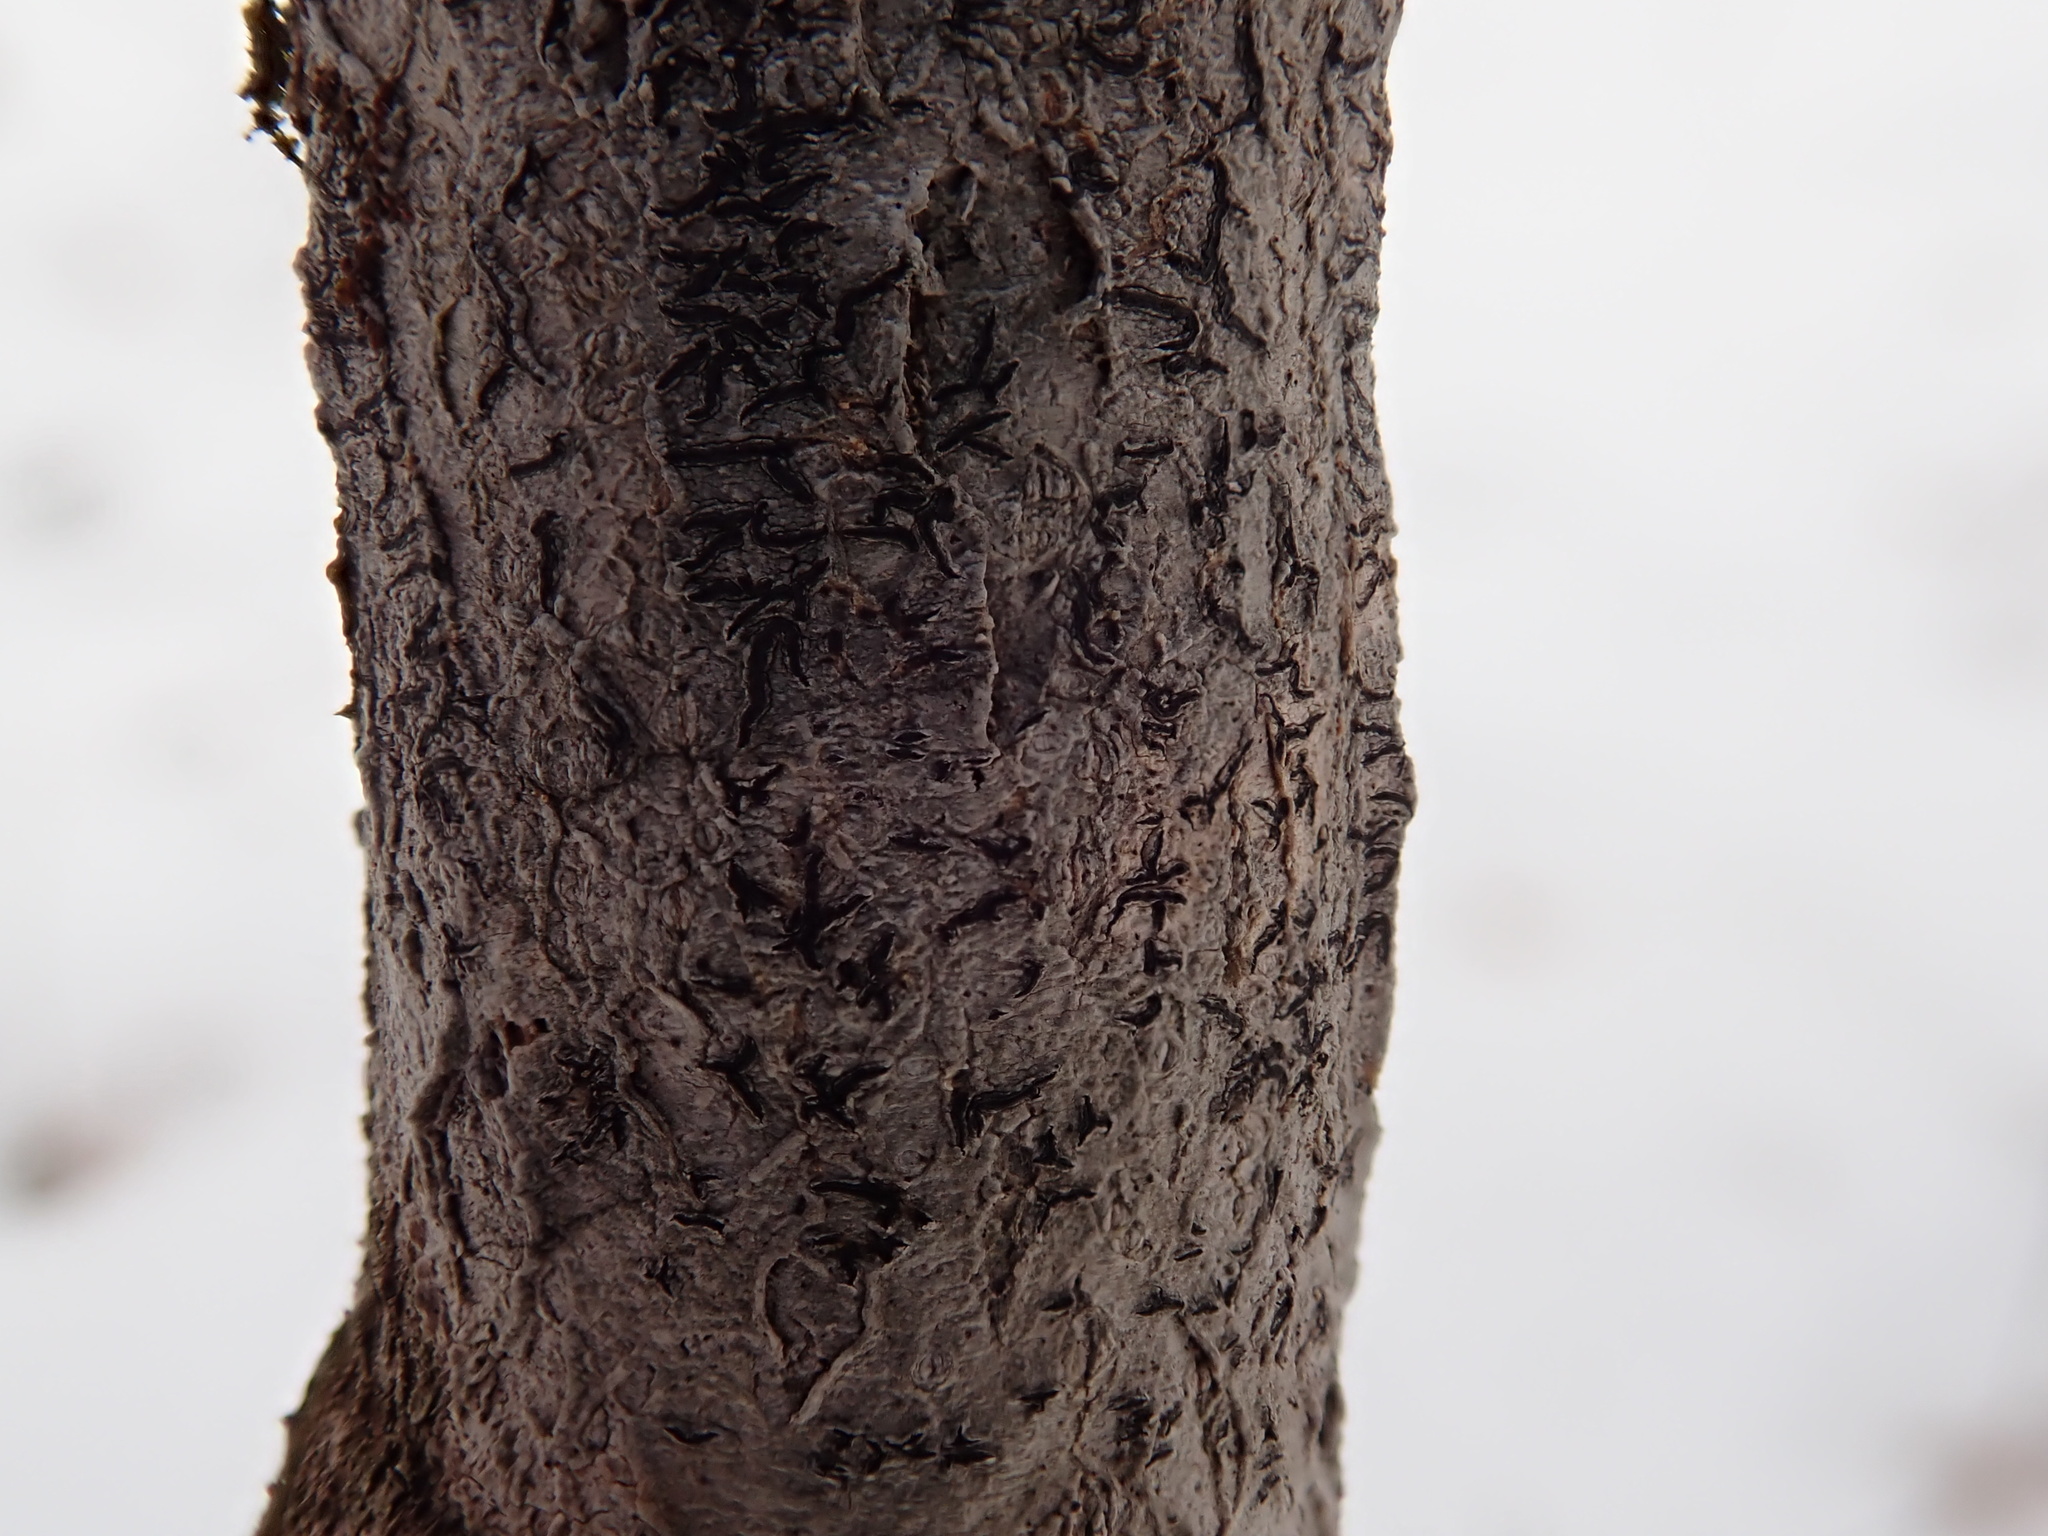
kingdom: Fungi
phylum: Ascomycota
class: Lecanoromycetes
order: Ostropales
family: Graphidaceae
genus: Graphis
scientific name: Graphis scripta
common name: Script lichen
